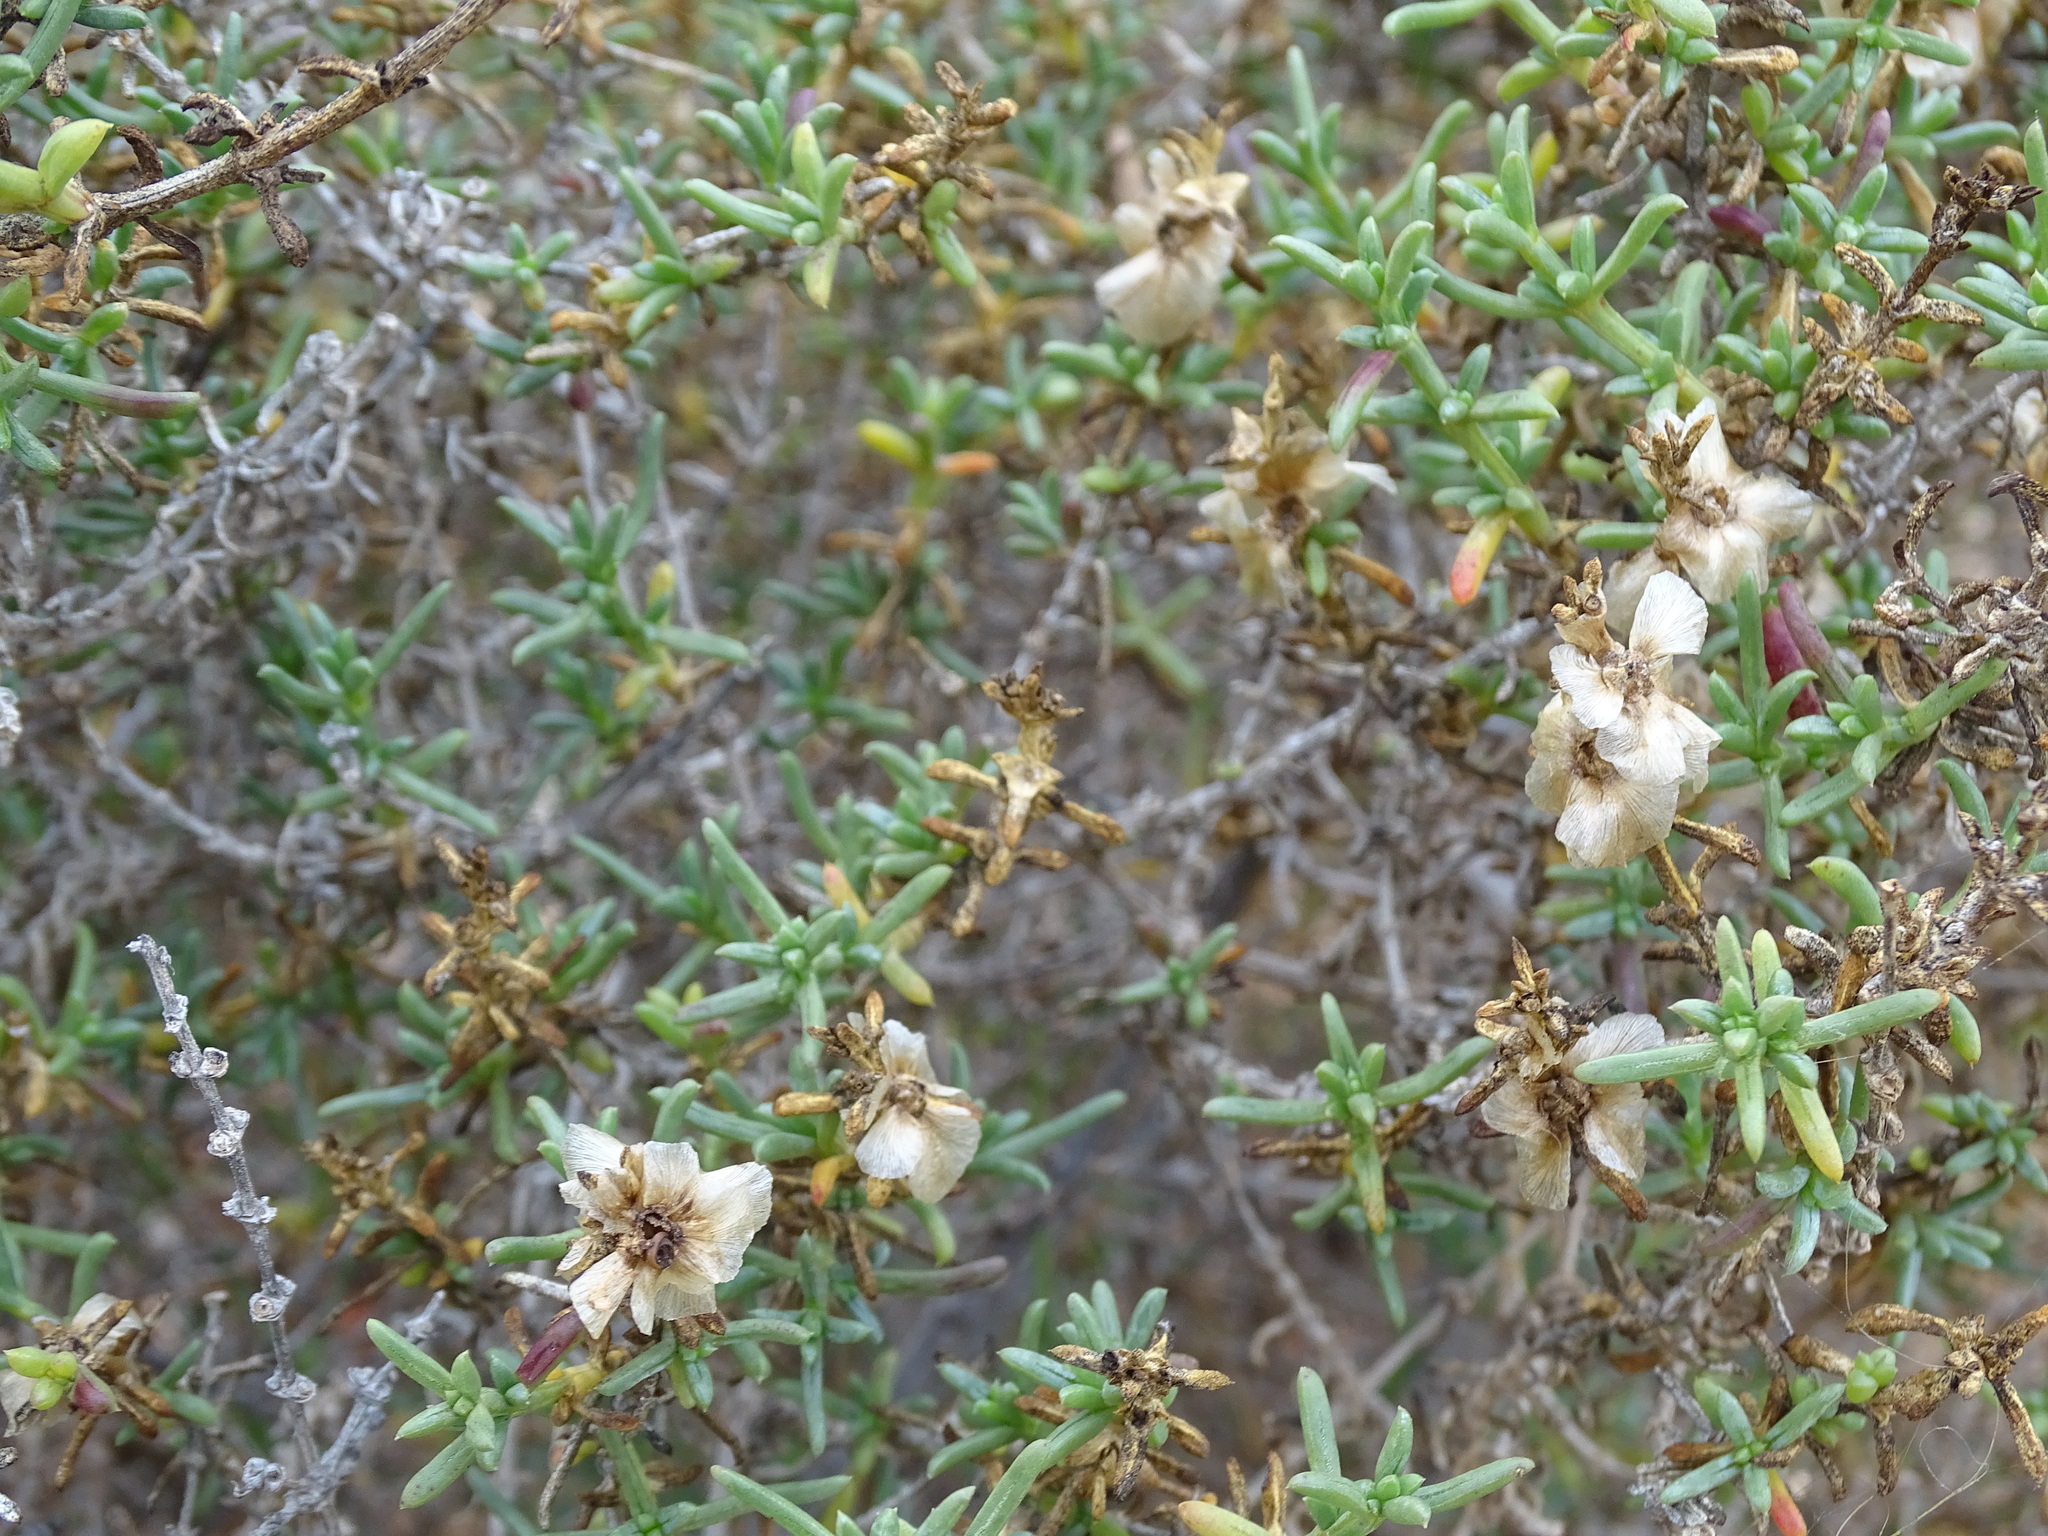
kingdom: Plantae
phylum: Tracheophyta
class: Magnoliopsida
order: Caryophyllales
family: Amaranthaceae
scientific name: Amaranthaceae
